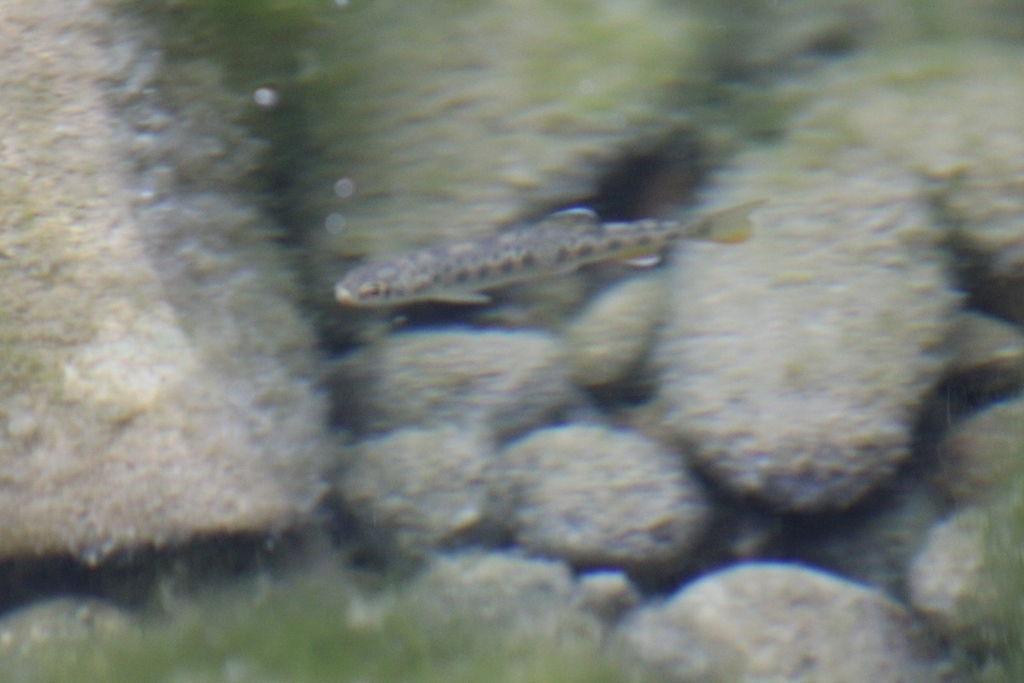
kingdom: Animalia
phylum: Chordata
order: Salmoniformes
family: Salmonidae
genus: Oncorhynchus
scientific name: Oncorhynchus mykiss
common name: Rainbow trout
